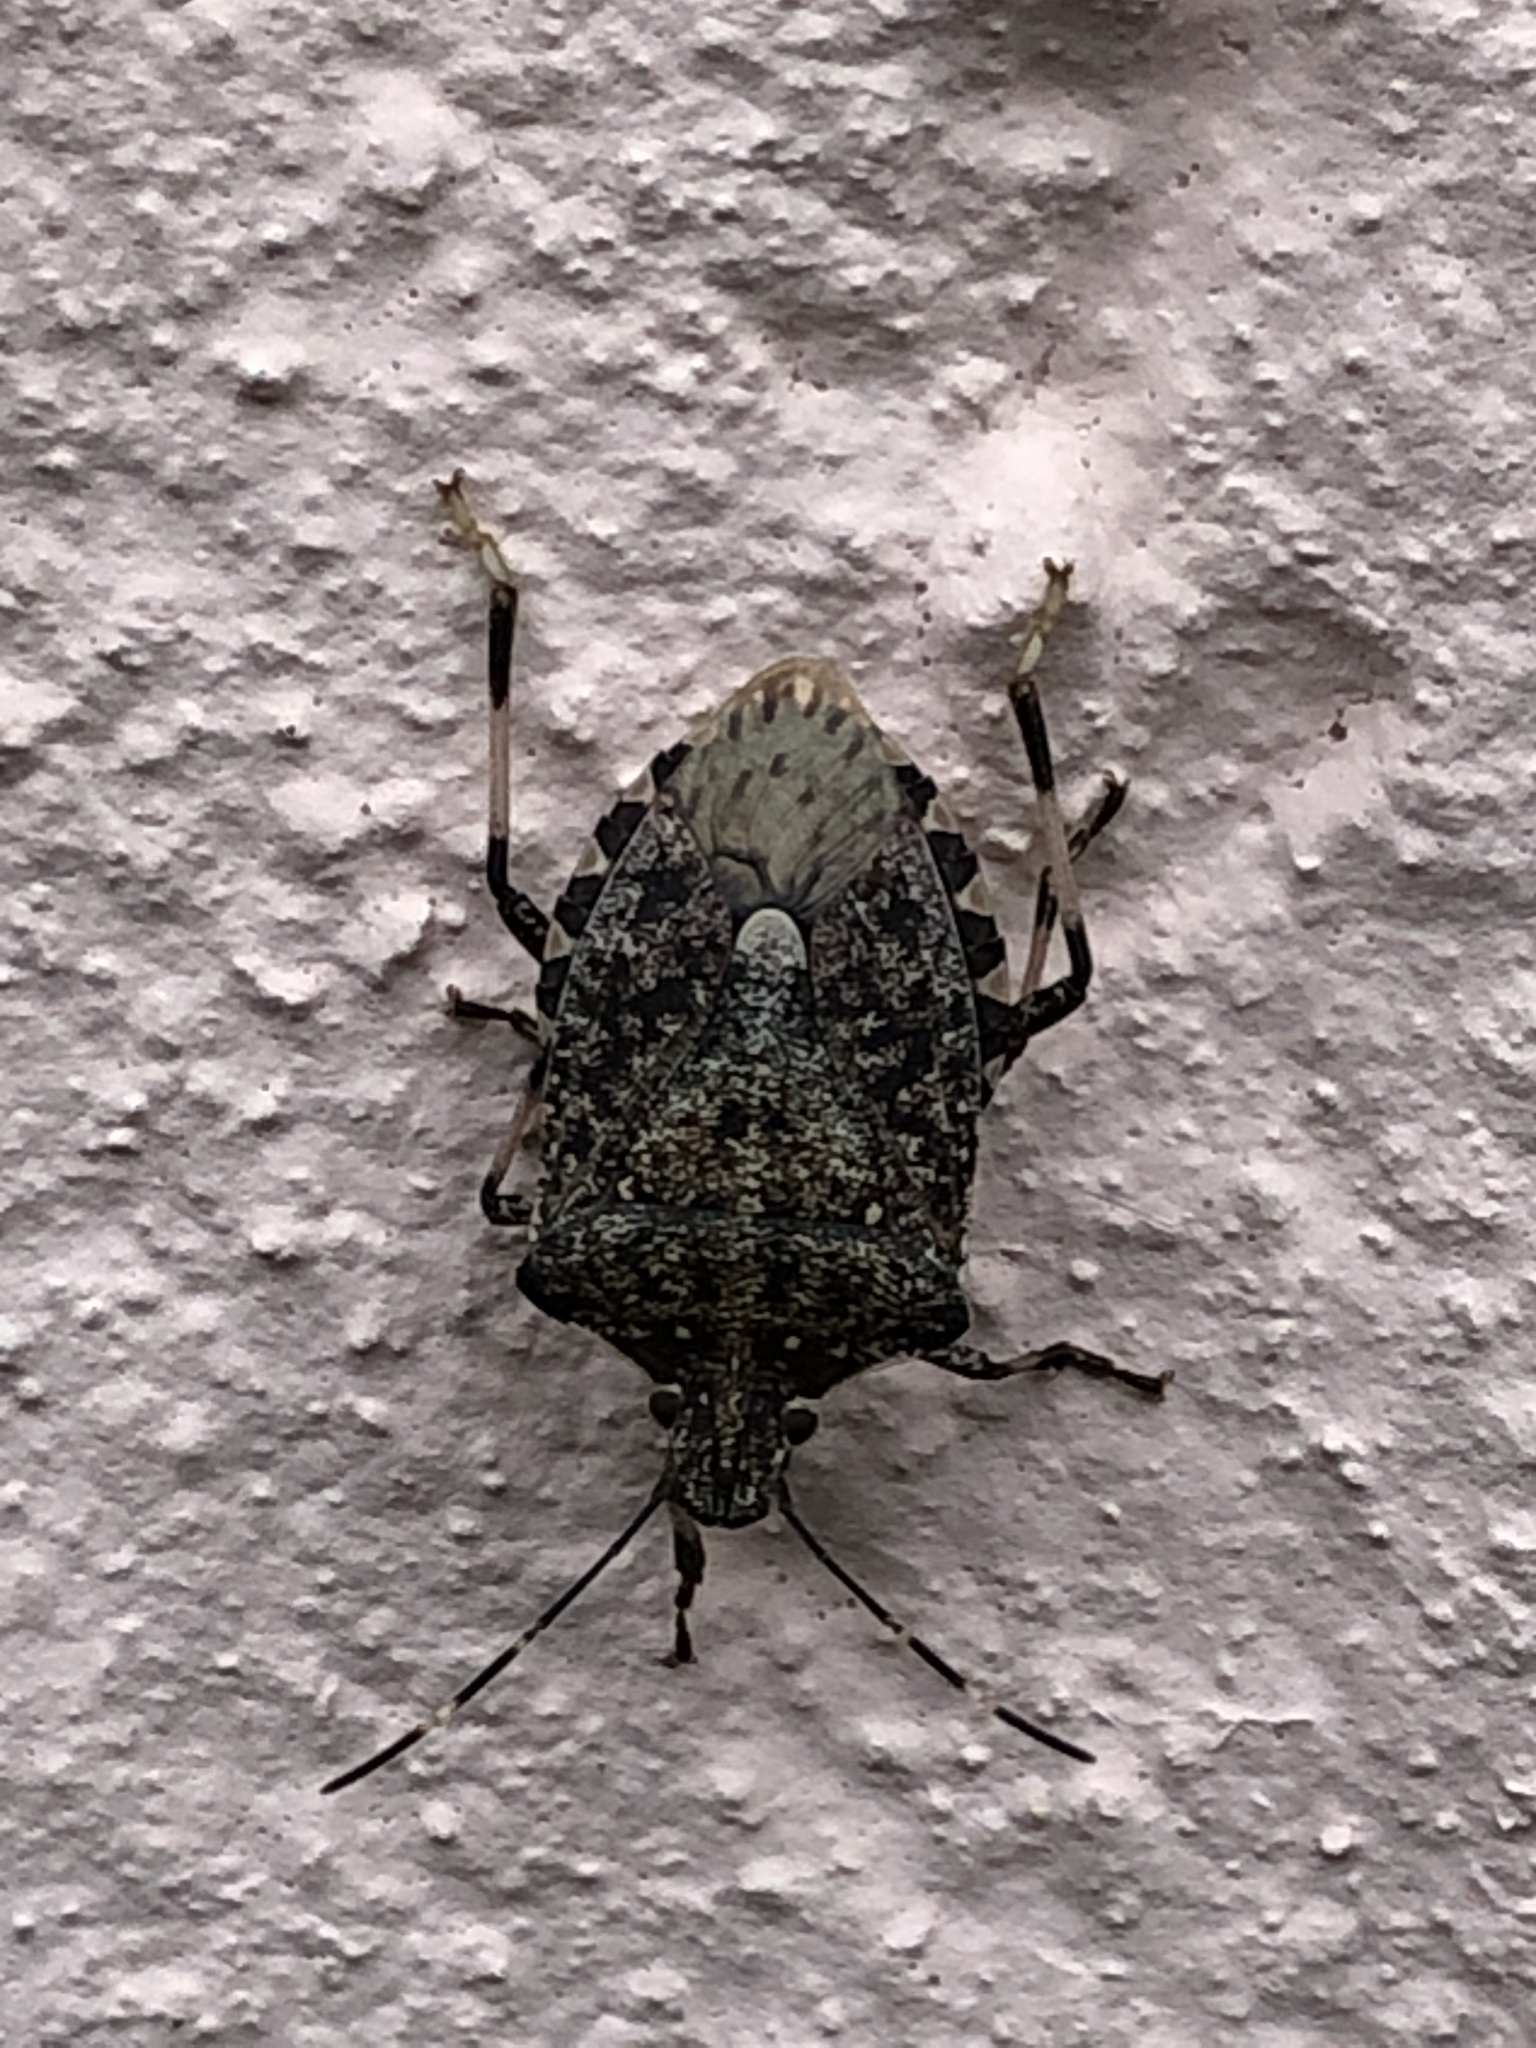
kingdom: Animalia
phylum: Arthropoda
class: Insecta
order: Hemiptera
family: Pentatomidae
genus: Halyomorpha
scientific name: Halyomorpha halys
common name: Brown marmorated stink bug
